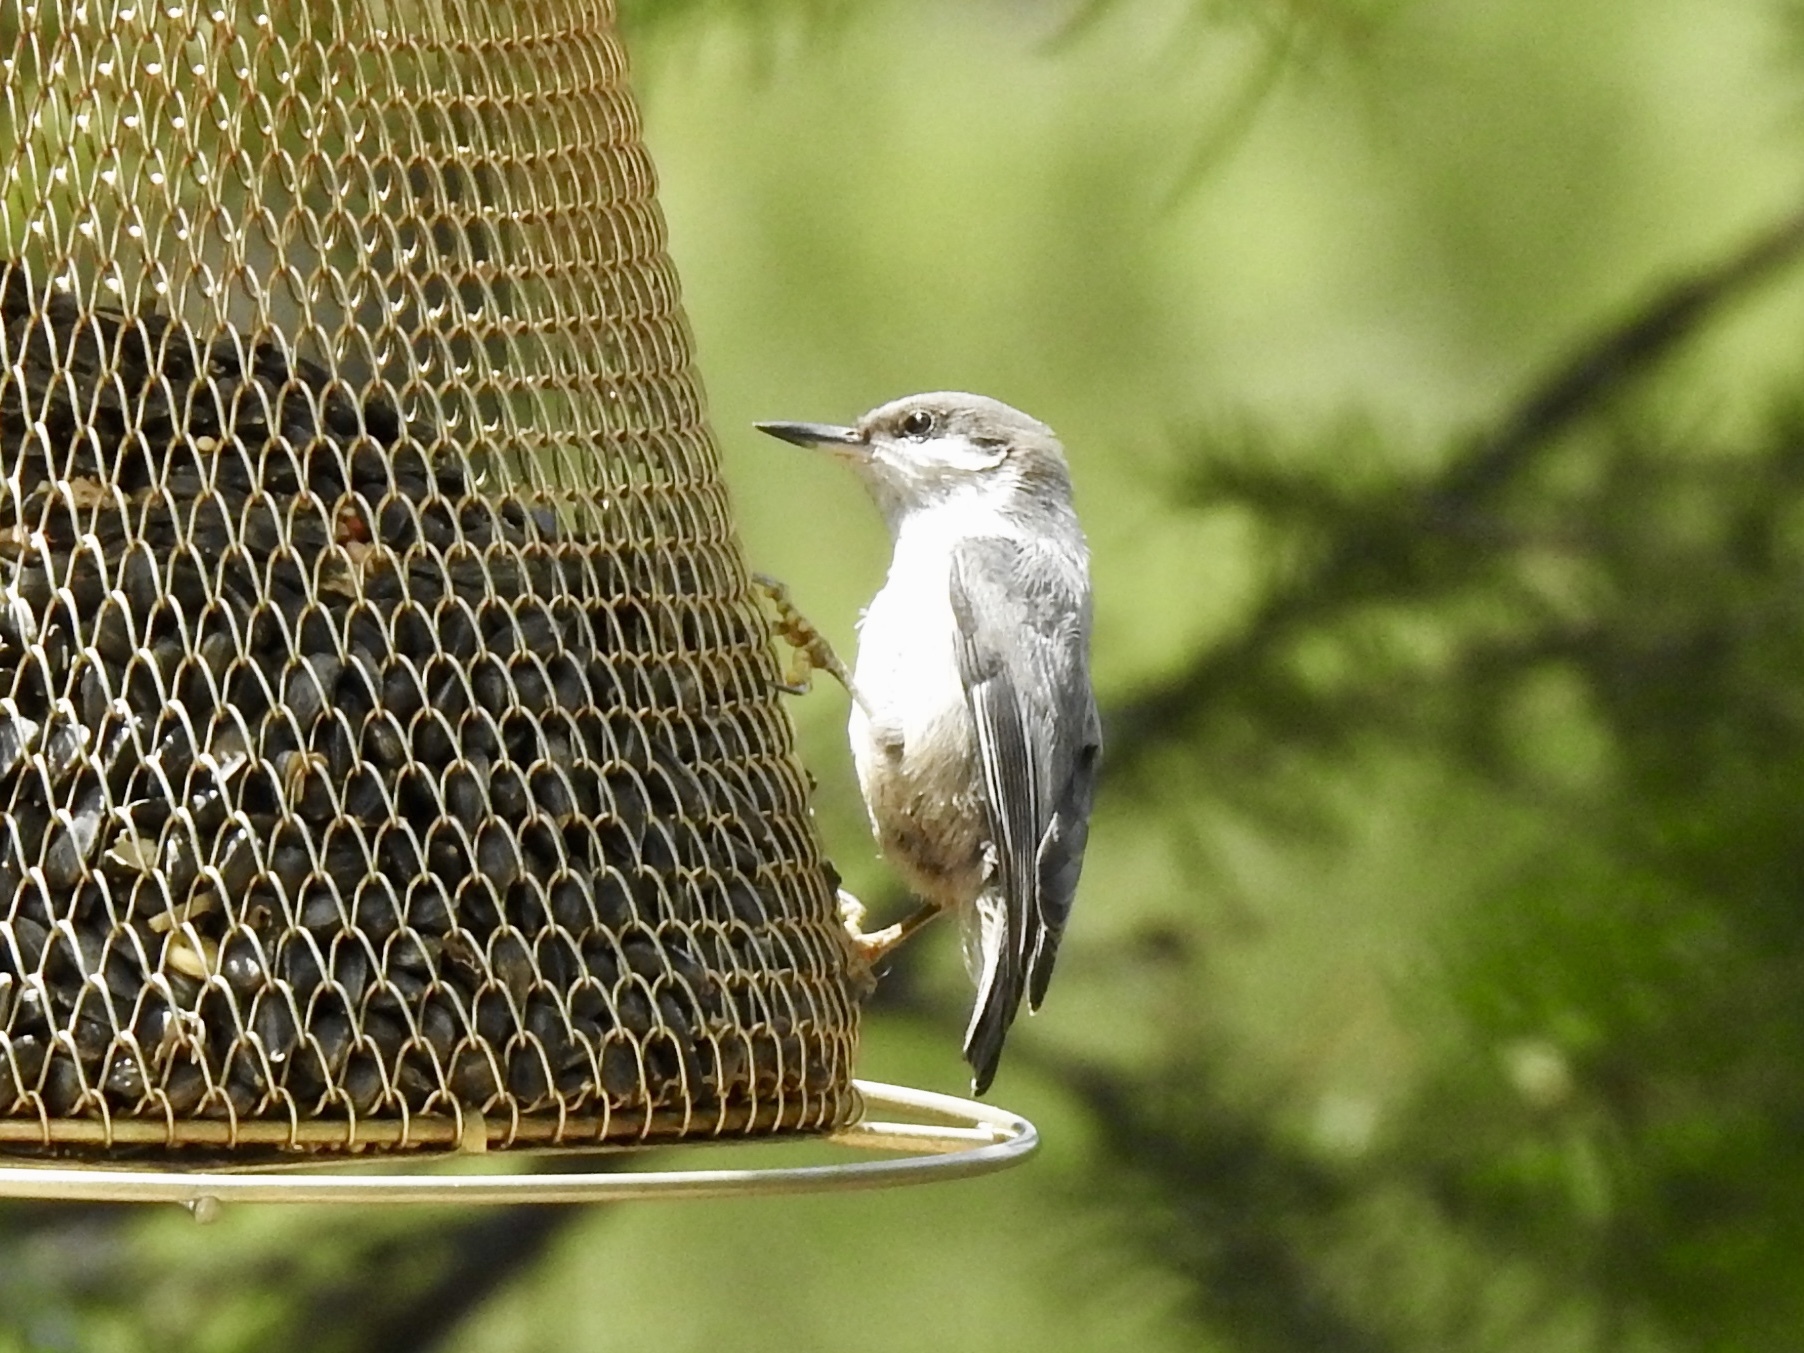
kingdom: Animalia
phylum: Chordata
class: Aves
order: Passeriformes
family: Sittidae
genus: Sitta
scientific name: Sitta pygmaea
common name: Pygmy nuthatch
